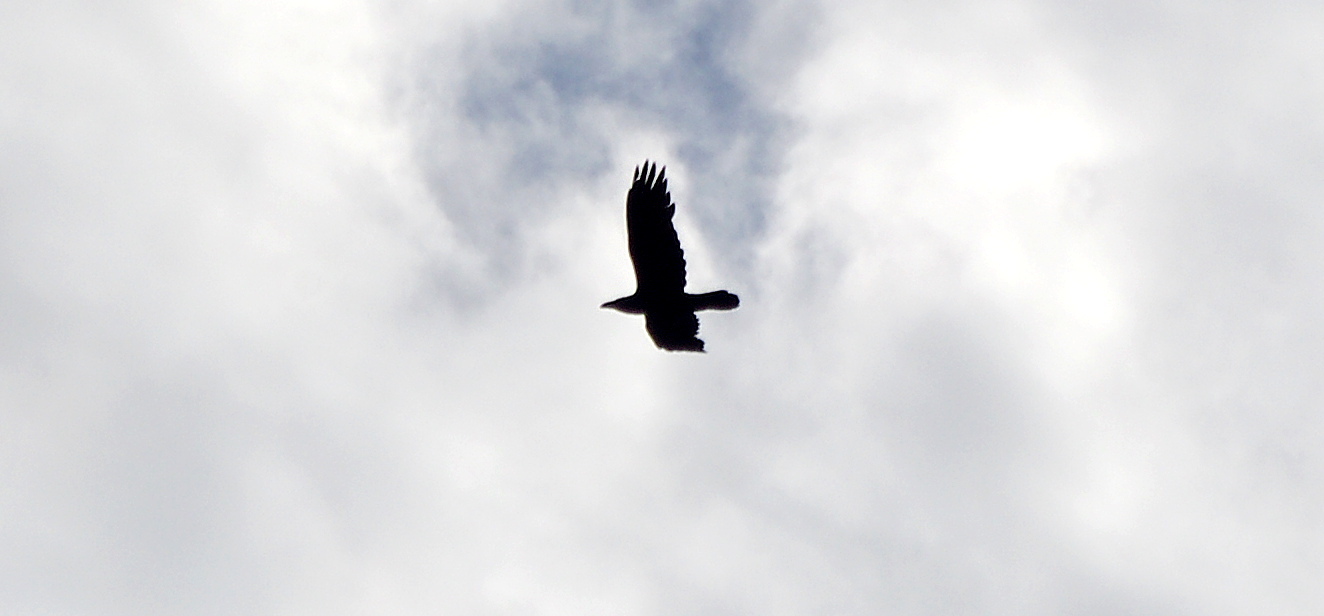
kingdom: Animalia
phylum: Chordata
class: Aves
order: Passeriformes
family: Corvidae
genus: Corvus
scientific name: Corvus corax
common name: Common raven
